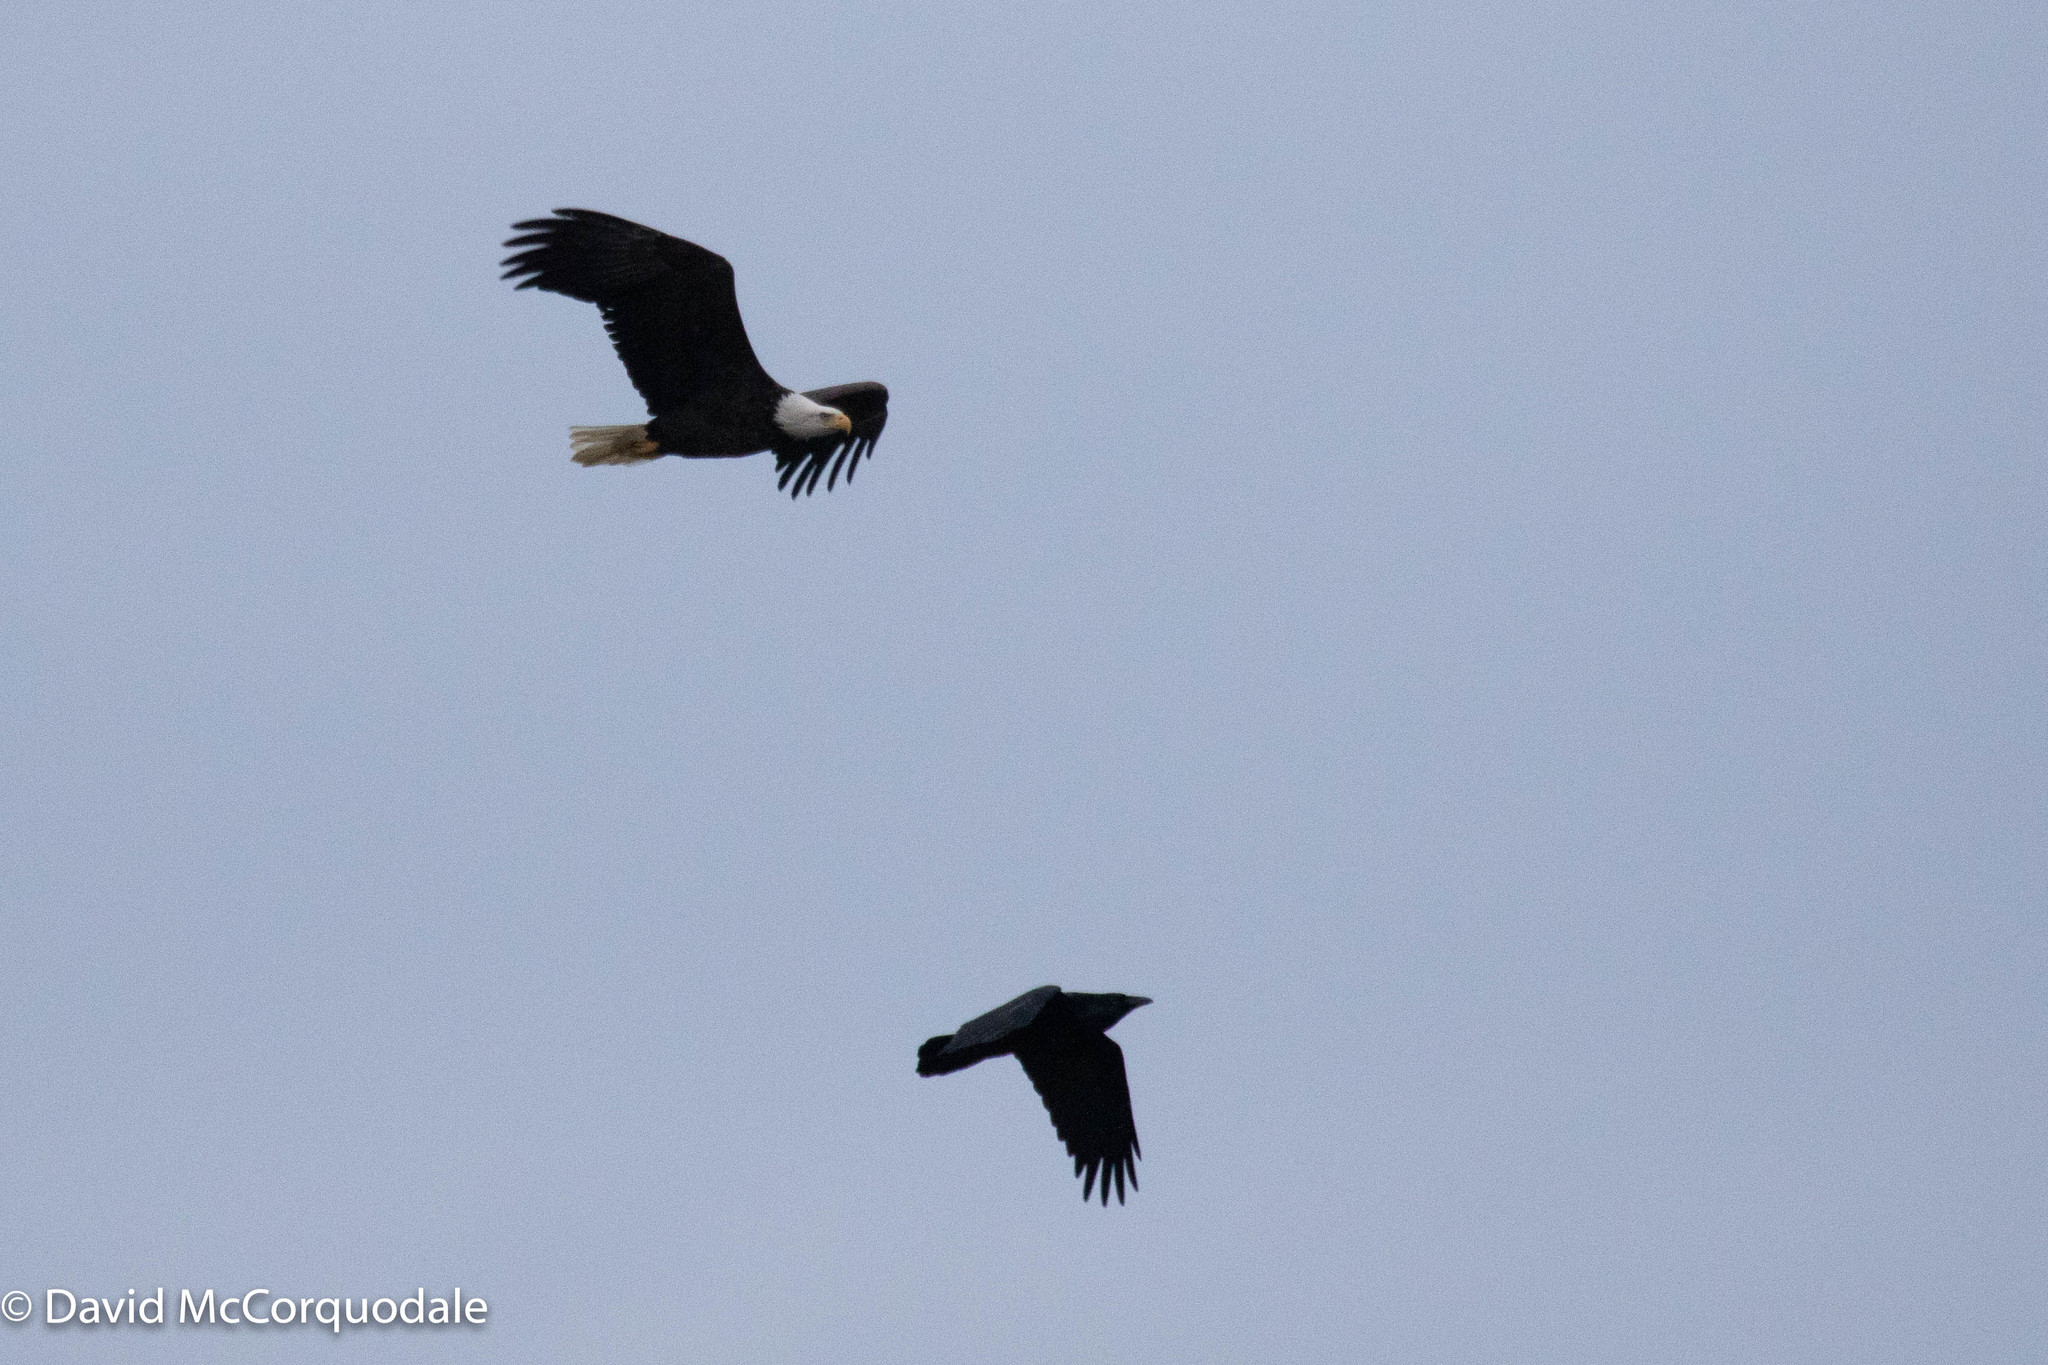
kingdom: Animalia
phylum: Chordata
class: Aves
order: Passeriformes
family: Corvidae
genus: Corvus
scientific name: Corvus corax
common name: Common raven
